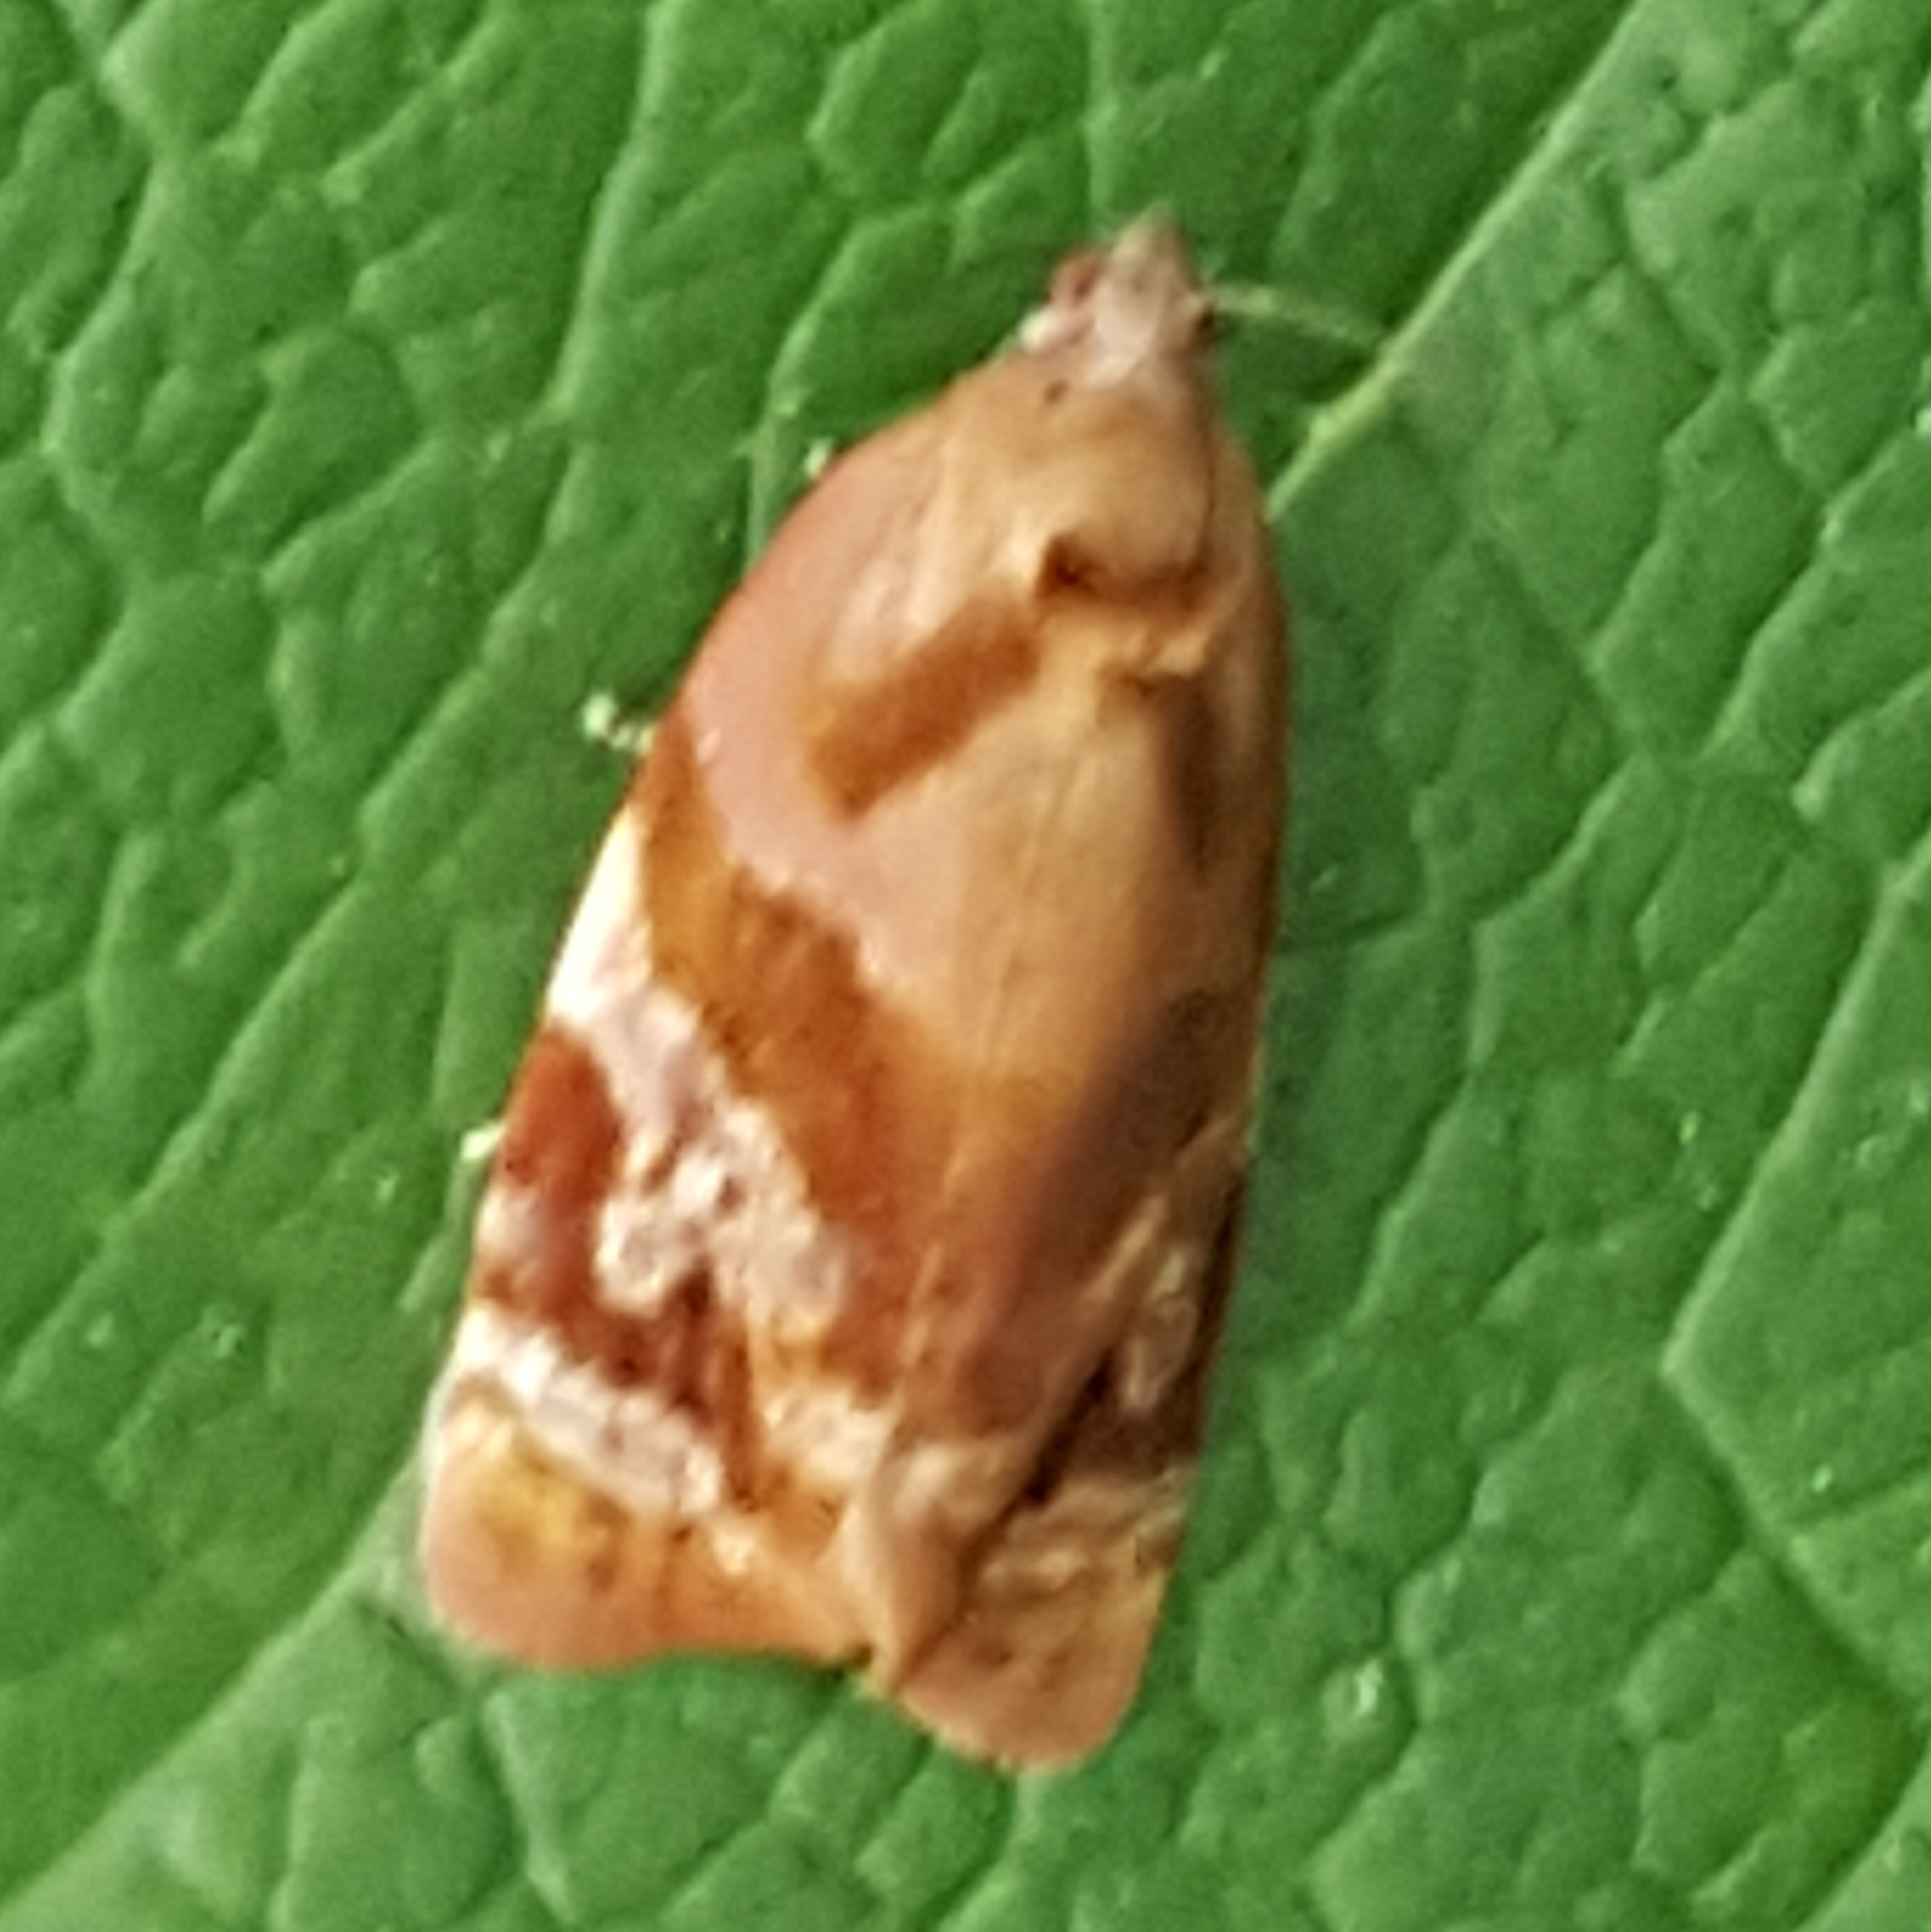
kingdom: Animalia
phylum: Arthropoda
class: Insecta
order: Lepidoptera
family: Tortricidae
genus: Ditula
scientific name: Ditula angustiorana
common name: Red-barred tortrix
